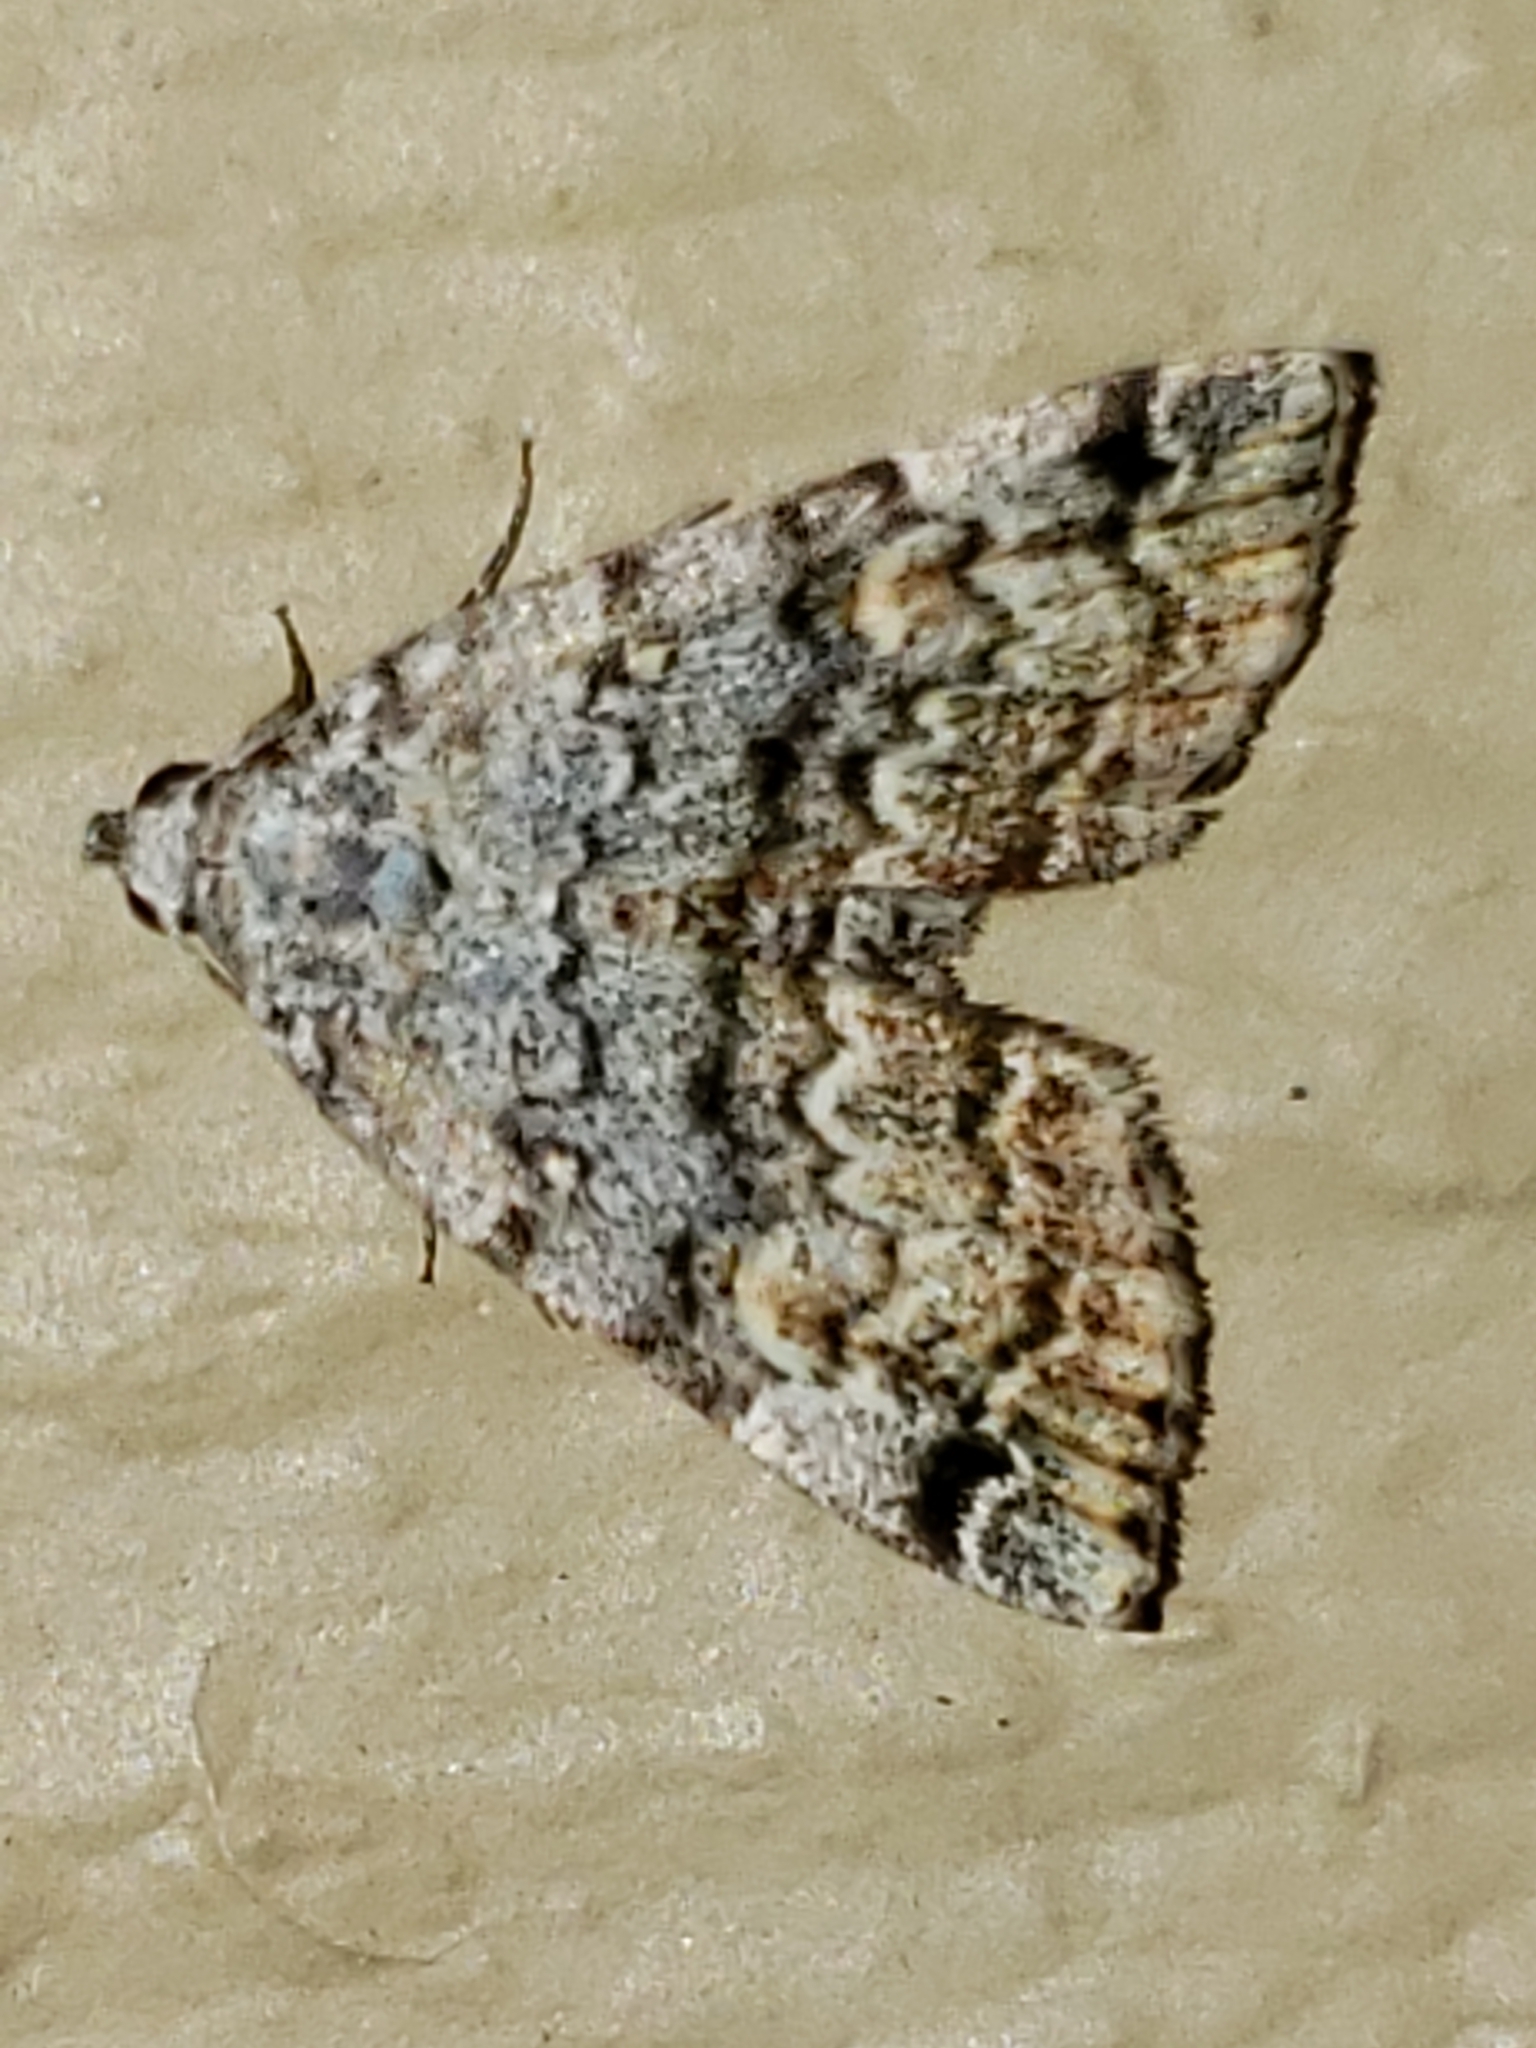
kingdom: Animalia
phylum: Arthropoda
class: Insecta
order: Lepidoptera
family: Erebidae
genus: Idia
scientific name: Idia americalis
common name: American idia moth
